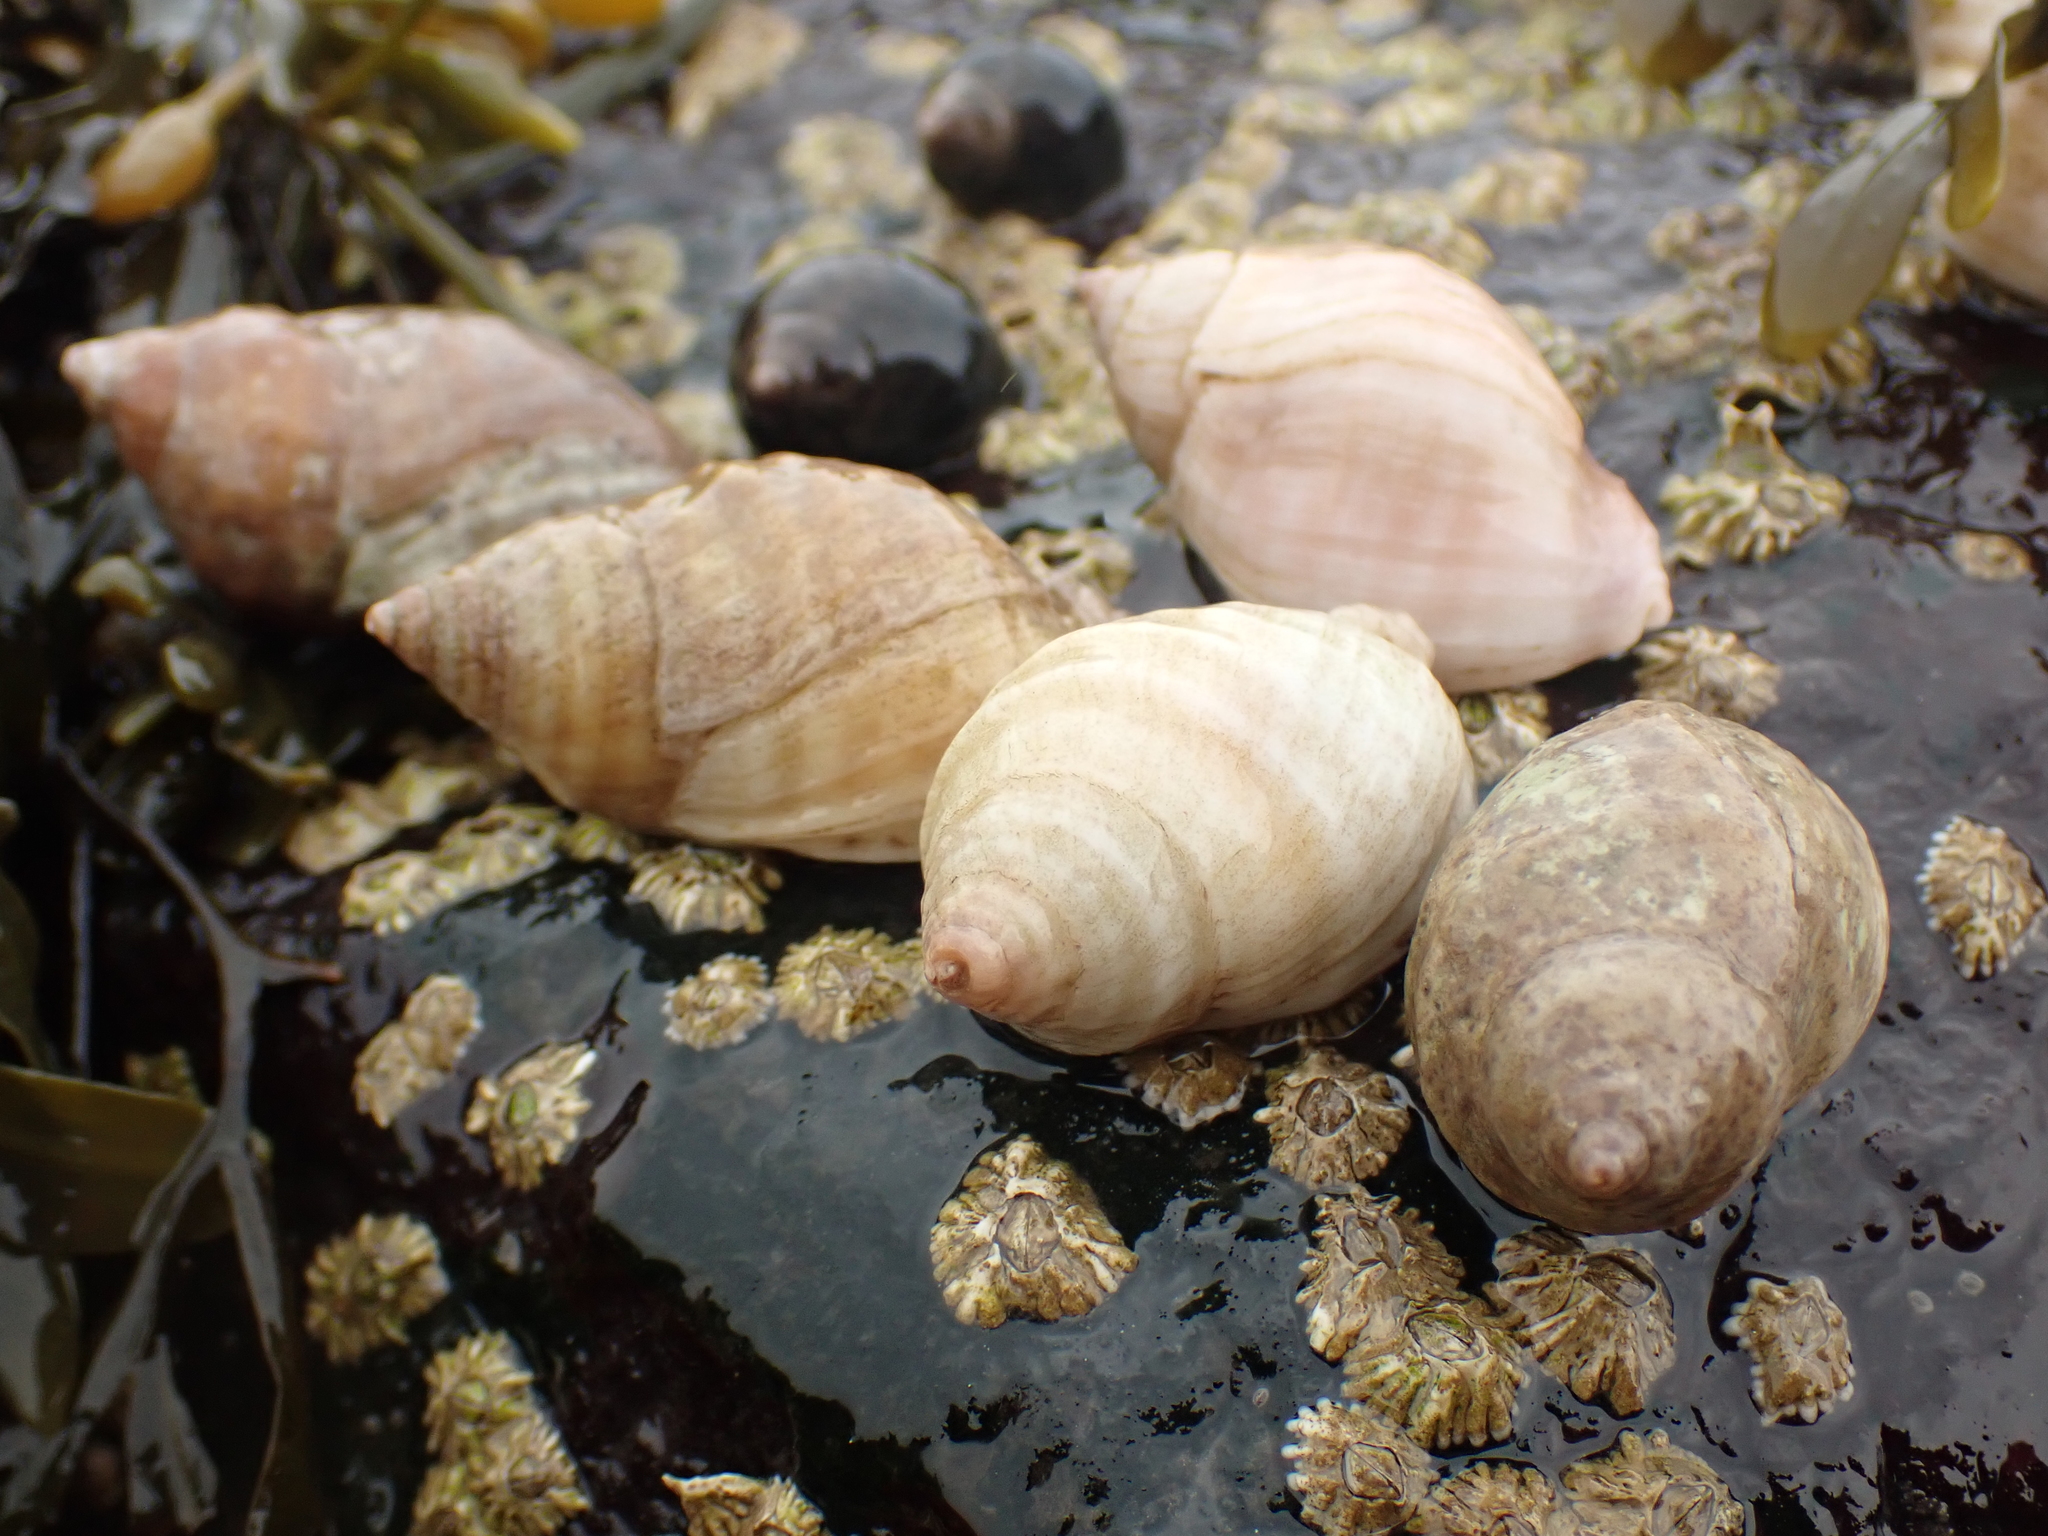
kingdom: Animalia
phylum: Mollusca
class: Gastropoda
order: Neogastropoda
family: Muricidae
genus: Nucella
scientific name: Nucella lapillus
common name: Dog whelk
